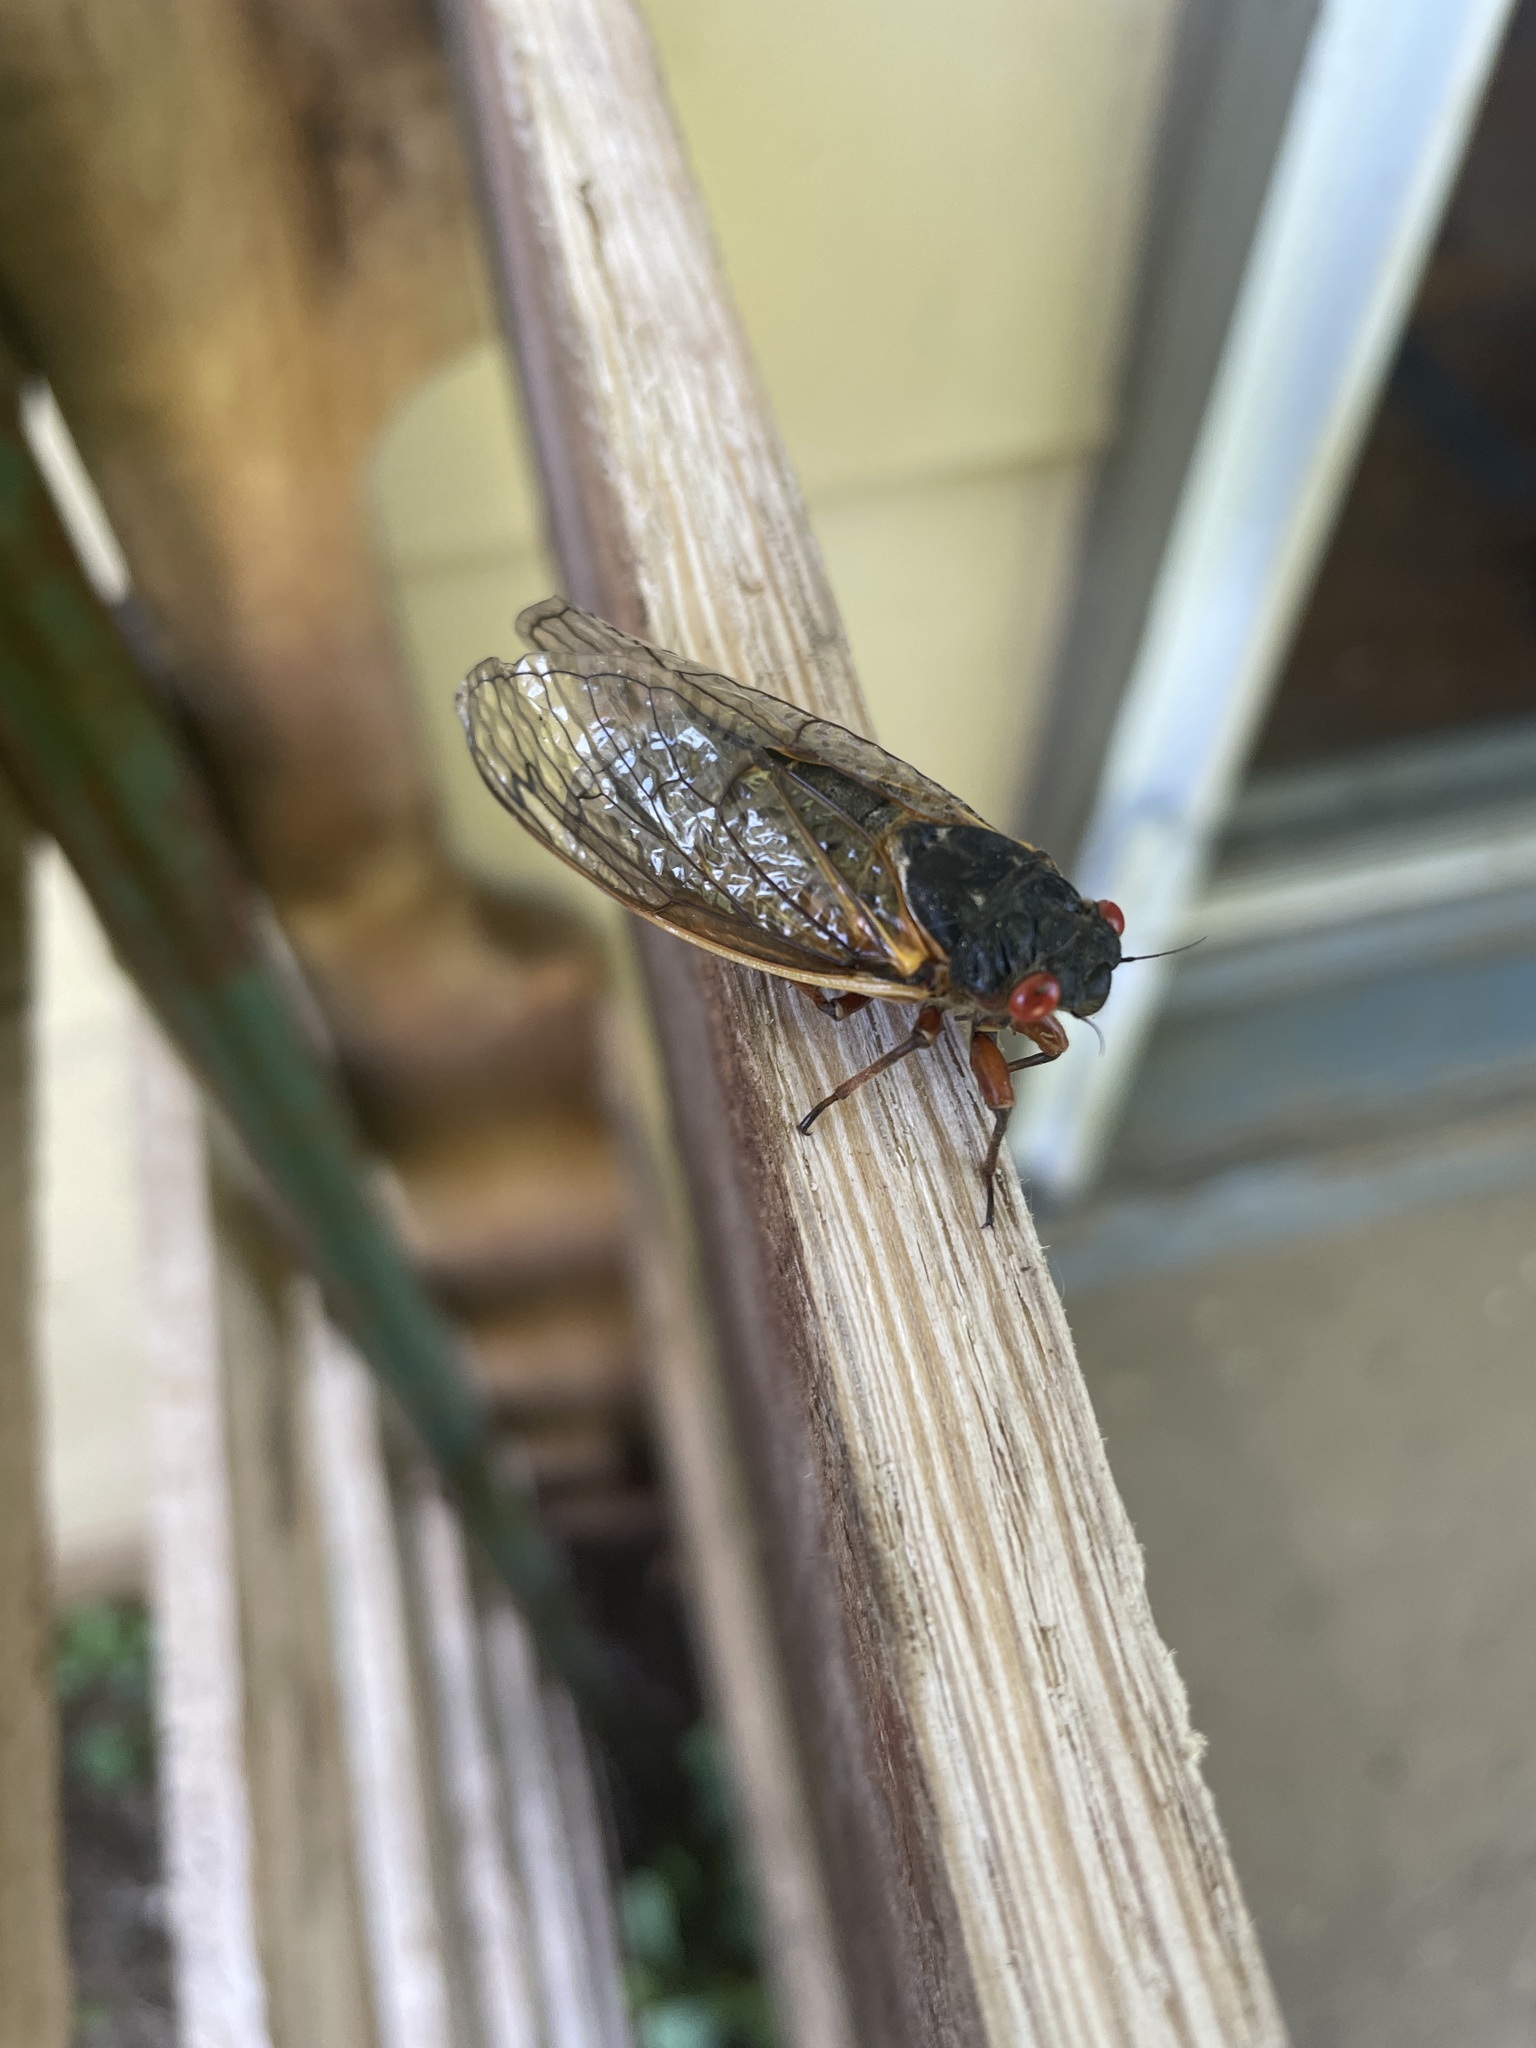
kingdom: Animalia
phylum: Arthropoda
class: Insecta
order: Hemiptera
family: Cicadidae
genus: Magicicada
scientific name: Magicicada
